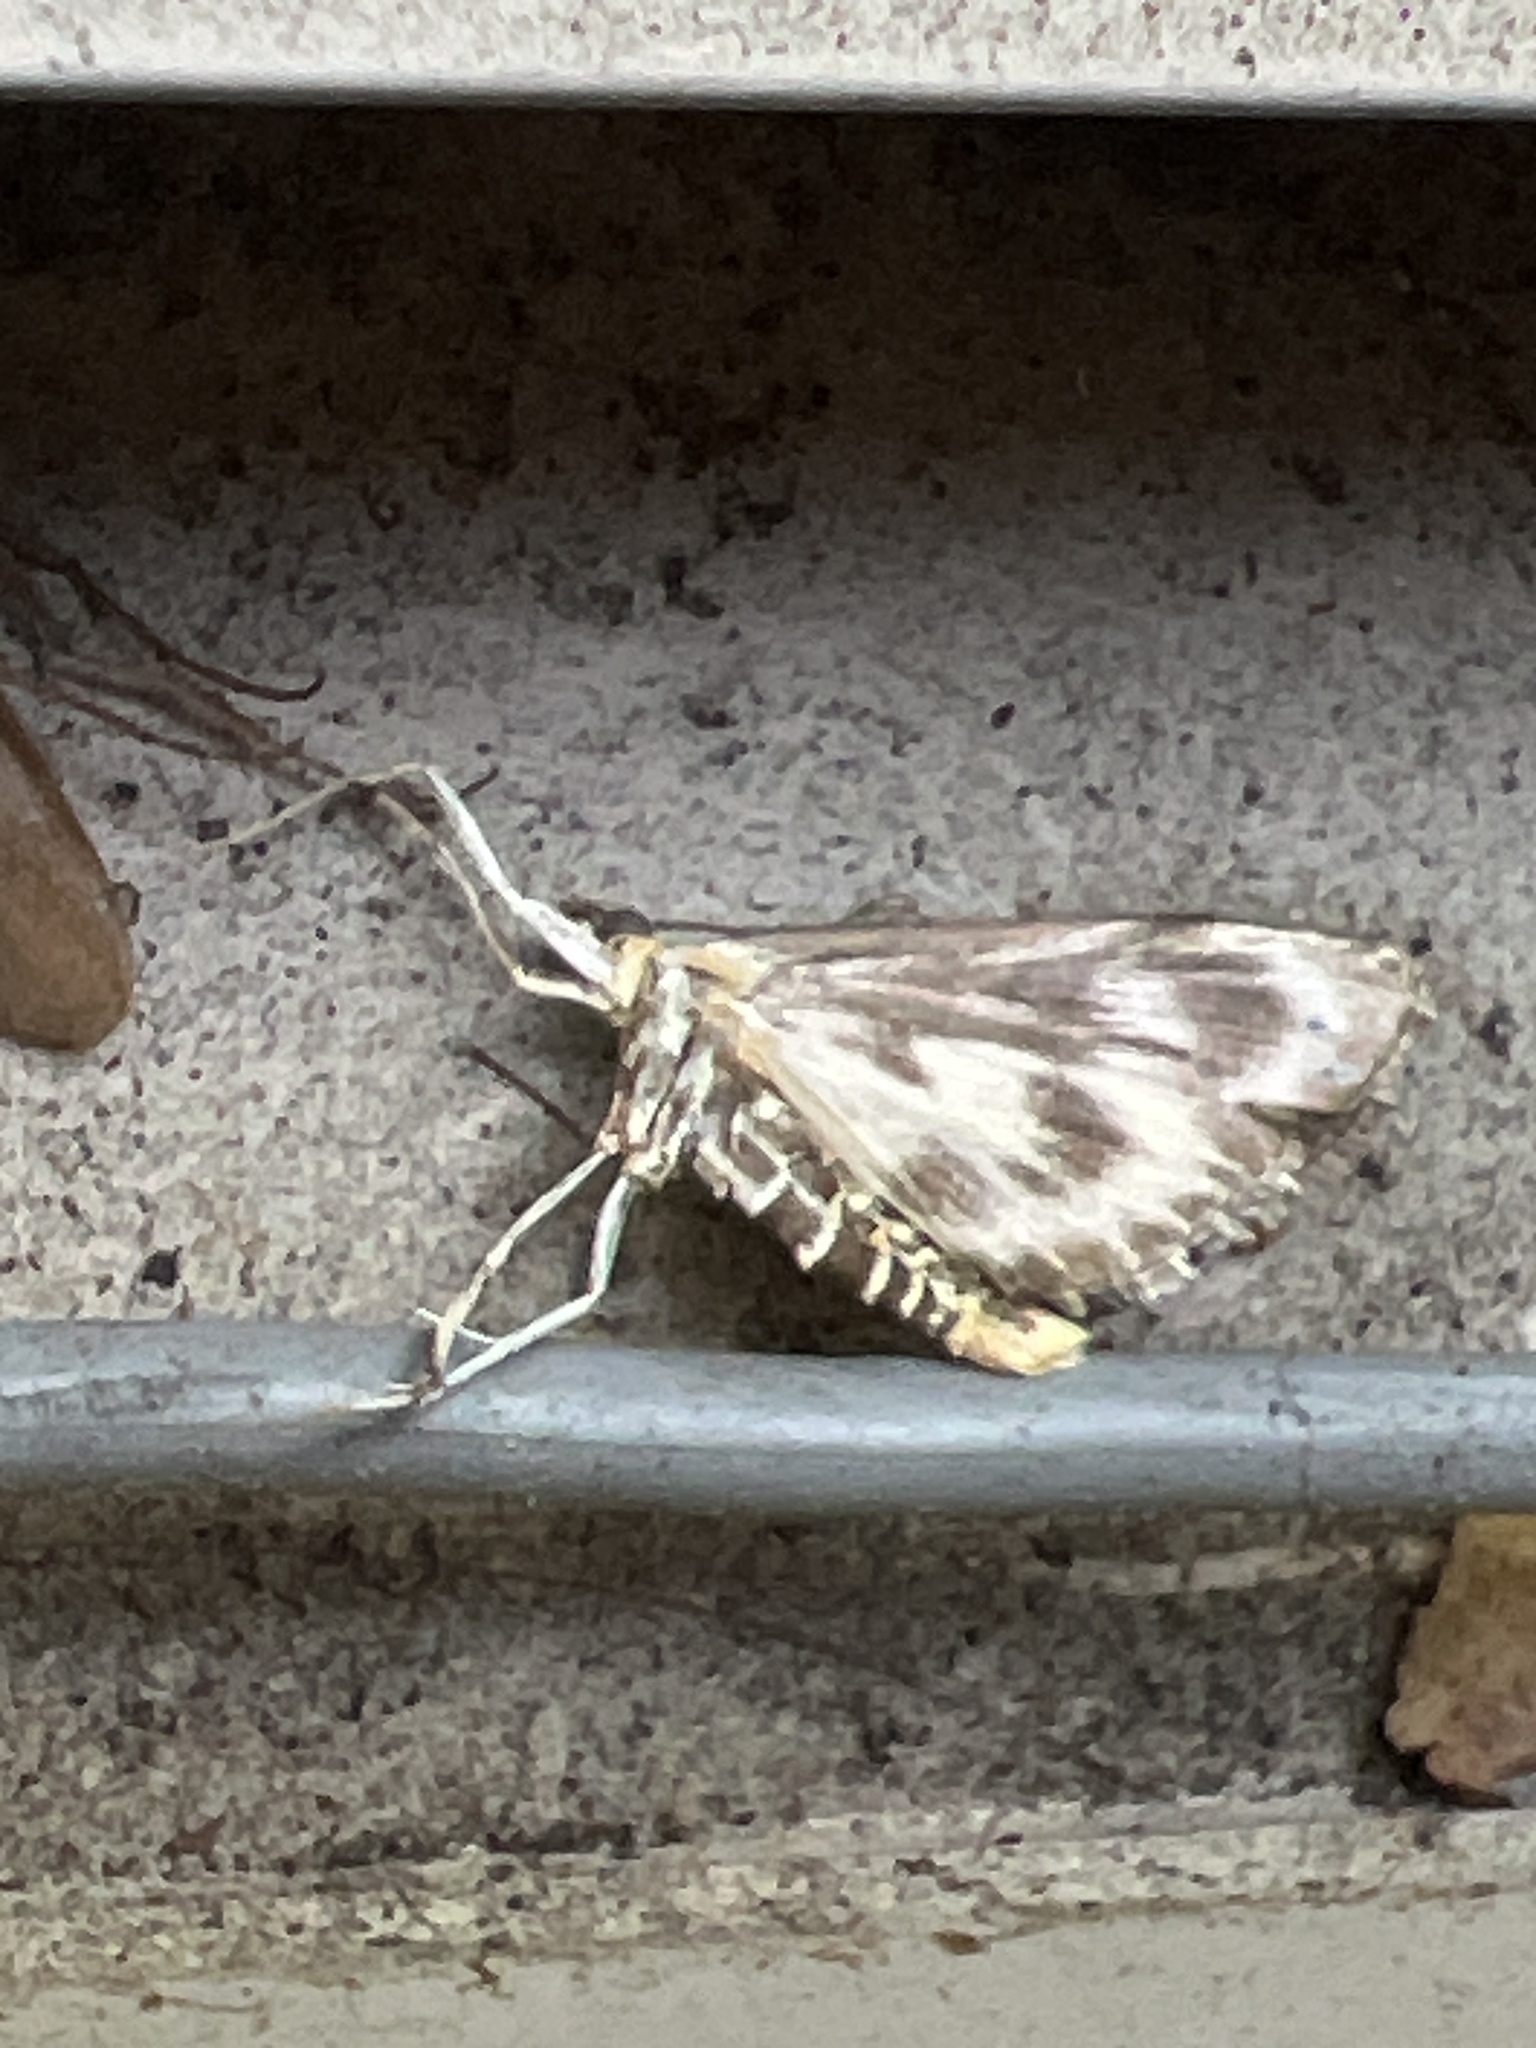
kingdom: Animalia
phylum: Arthropoda
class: Insecta
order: Lepidoptera
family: Crambidae
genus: Anania
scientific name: Anania hortulata
